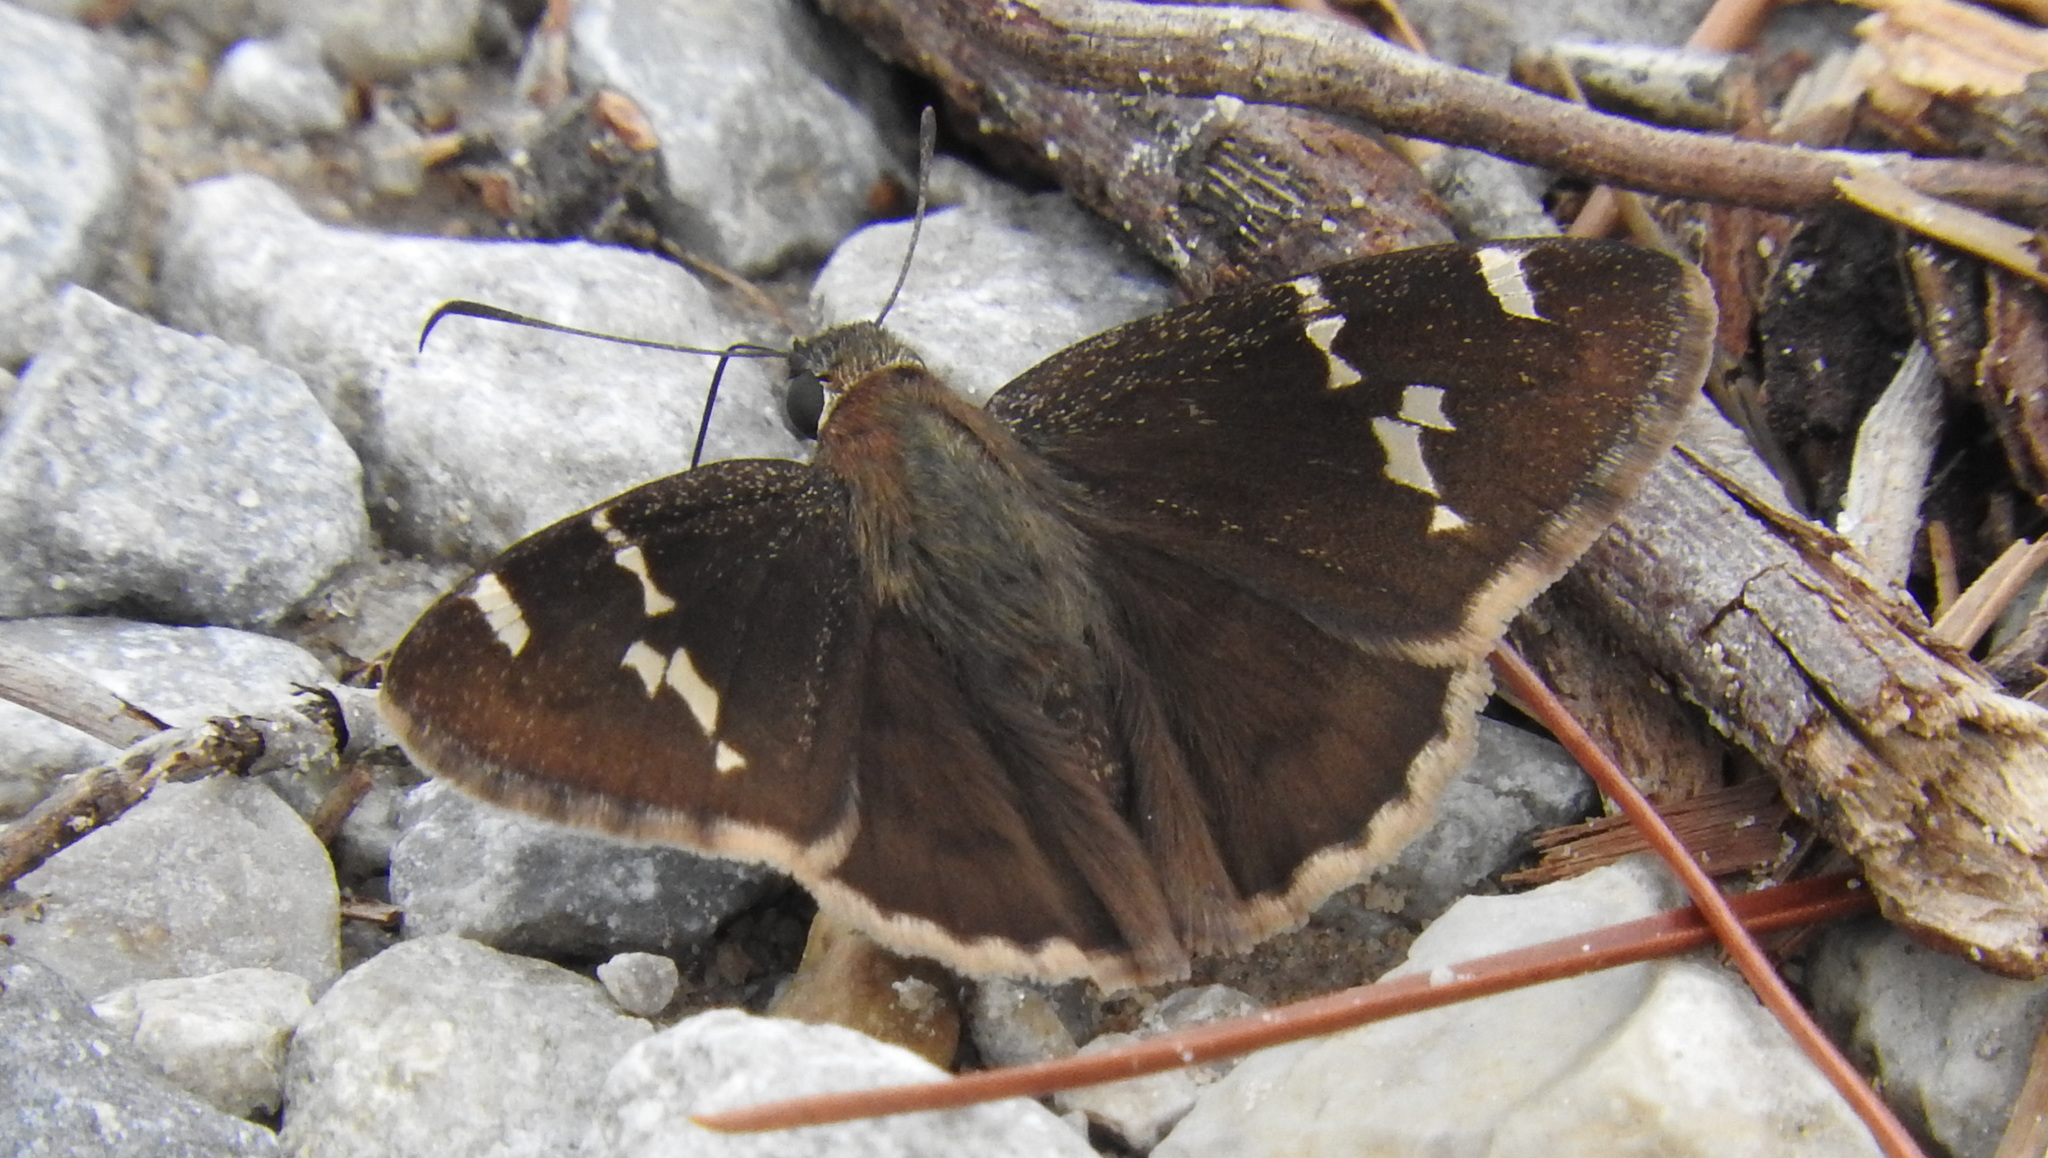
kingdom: Animalia
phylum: Arthropoda
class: Insecta
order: Lepidoptera
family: Hesperiidae
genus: Thorybes
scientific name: Thorybes daunus
